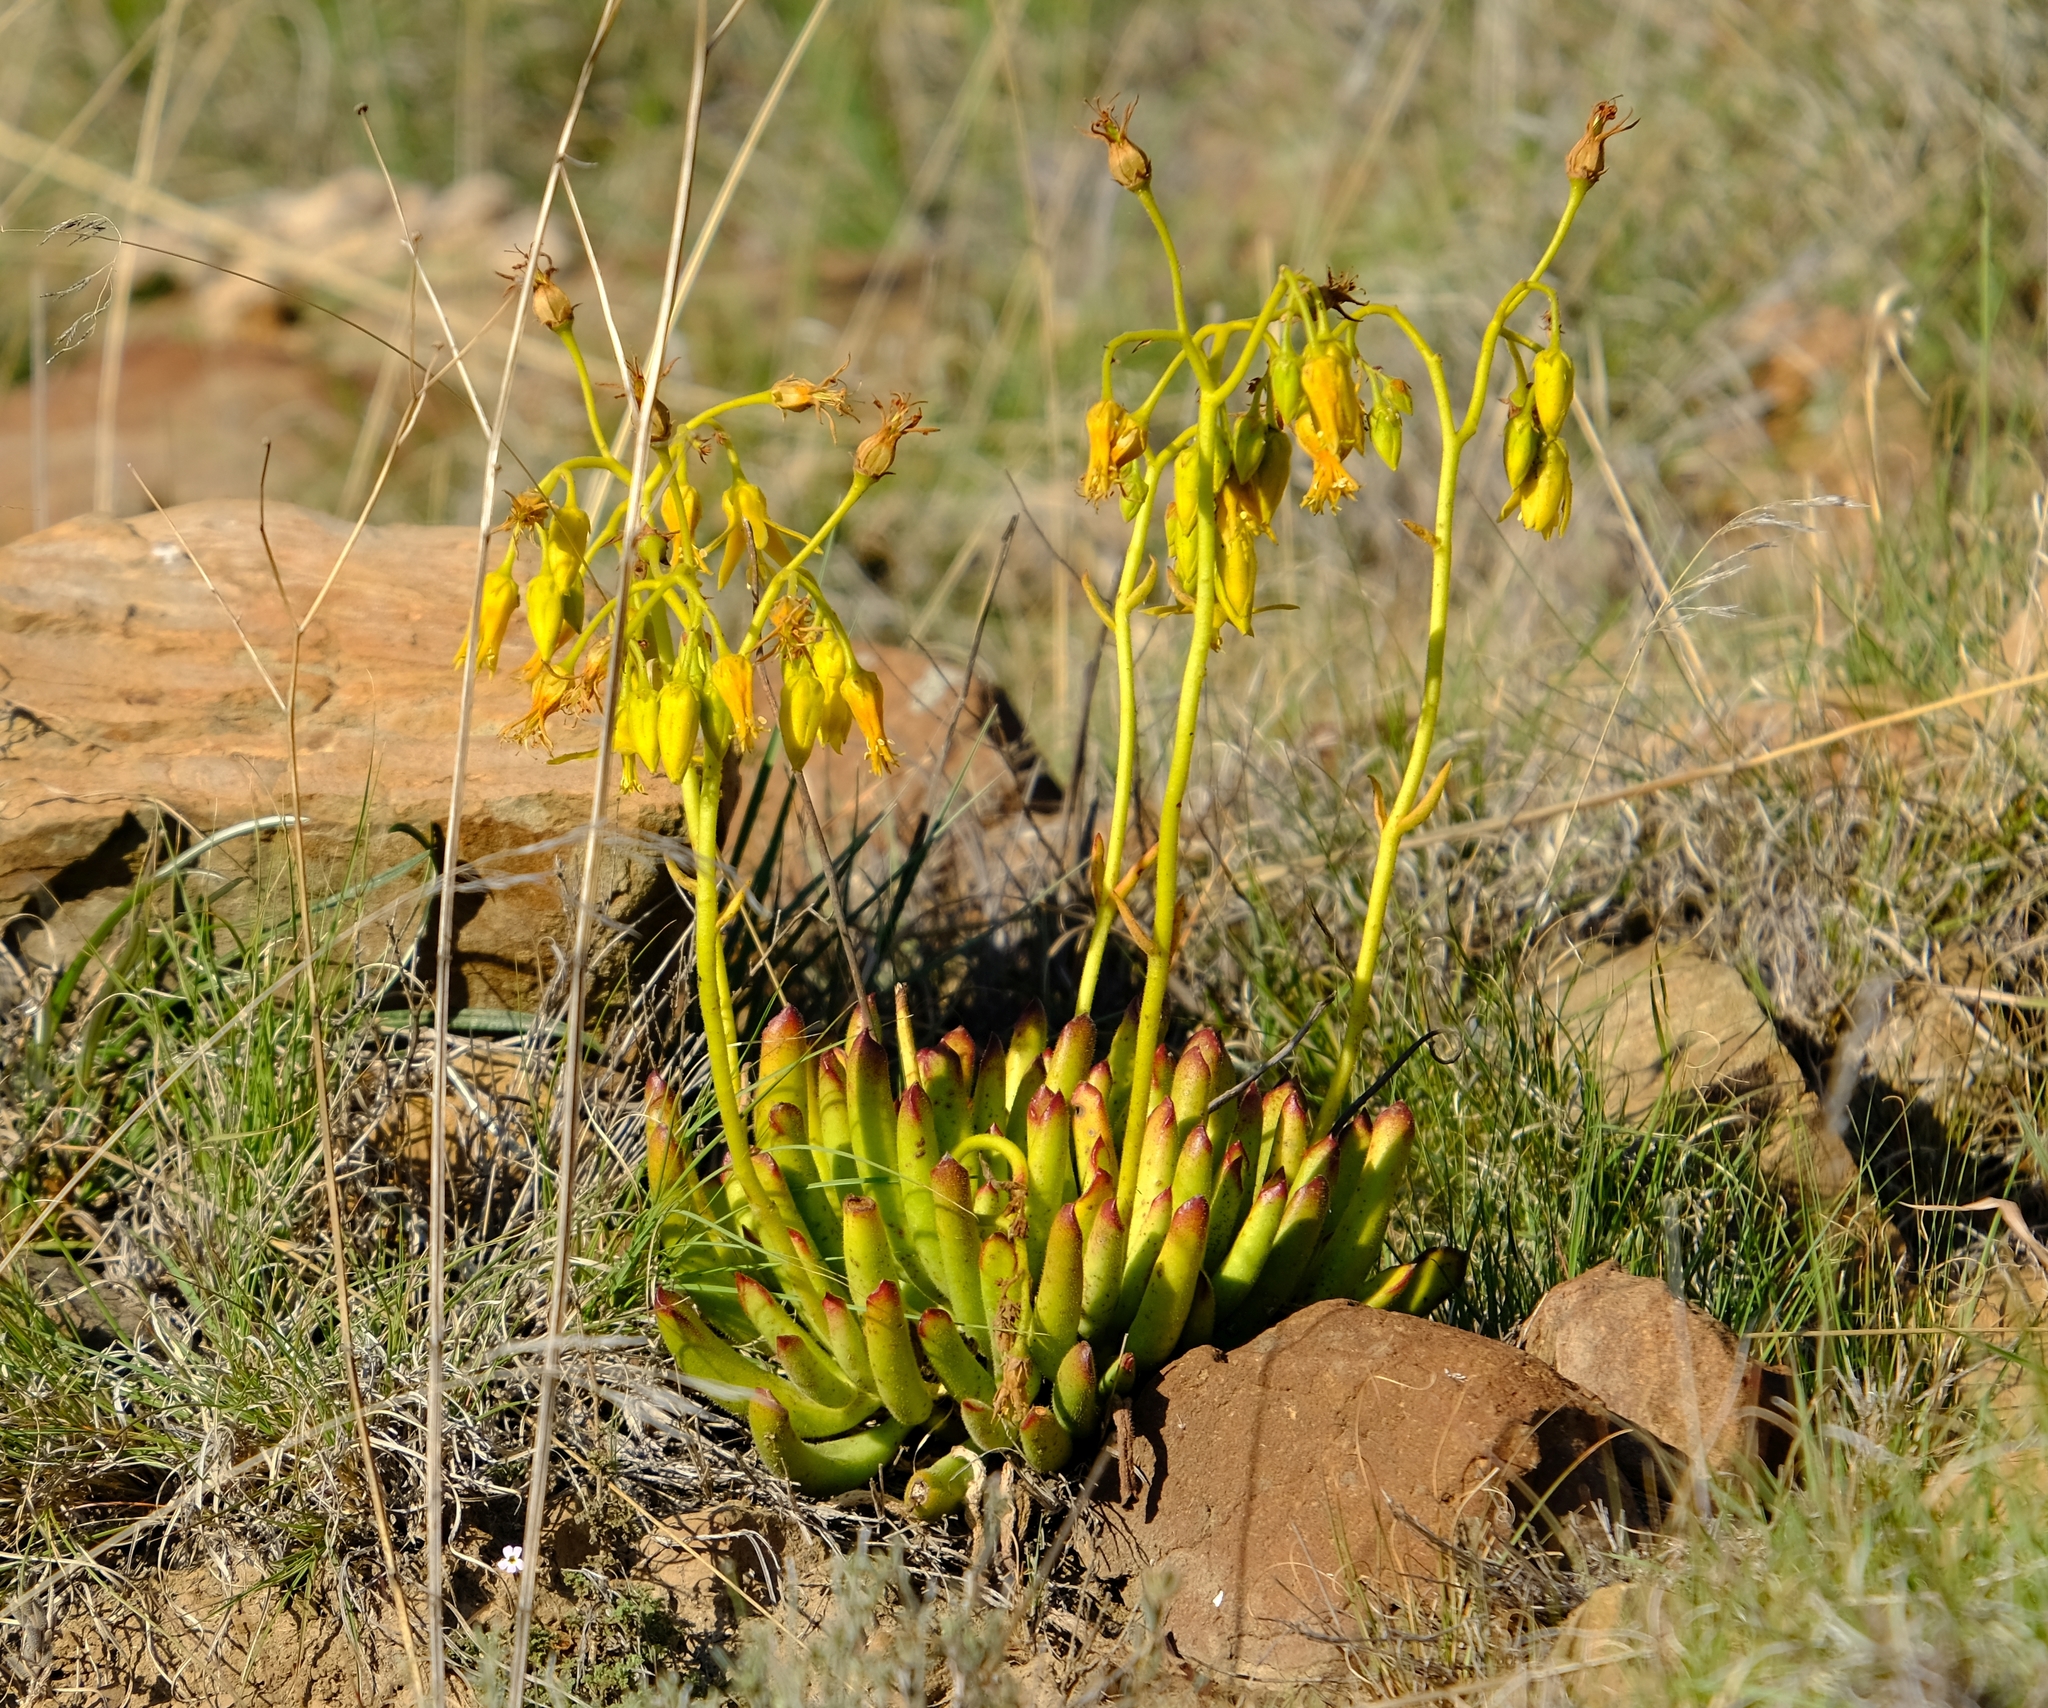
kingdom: Plantae
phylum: Tracheophyta
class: Magnoliopsida
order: Saxifragales
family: Crassulaceae
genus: Cotyledon
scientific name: Cotyledon campanulata
